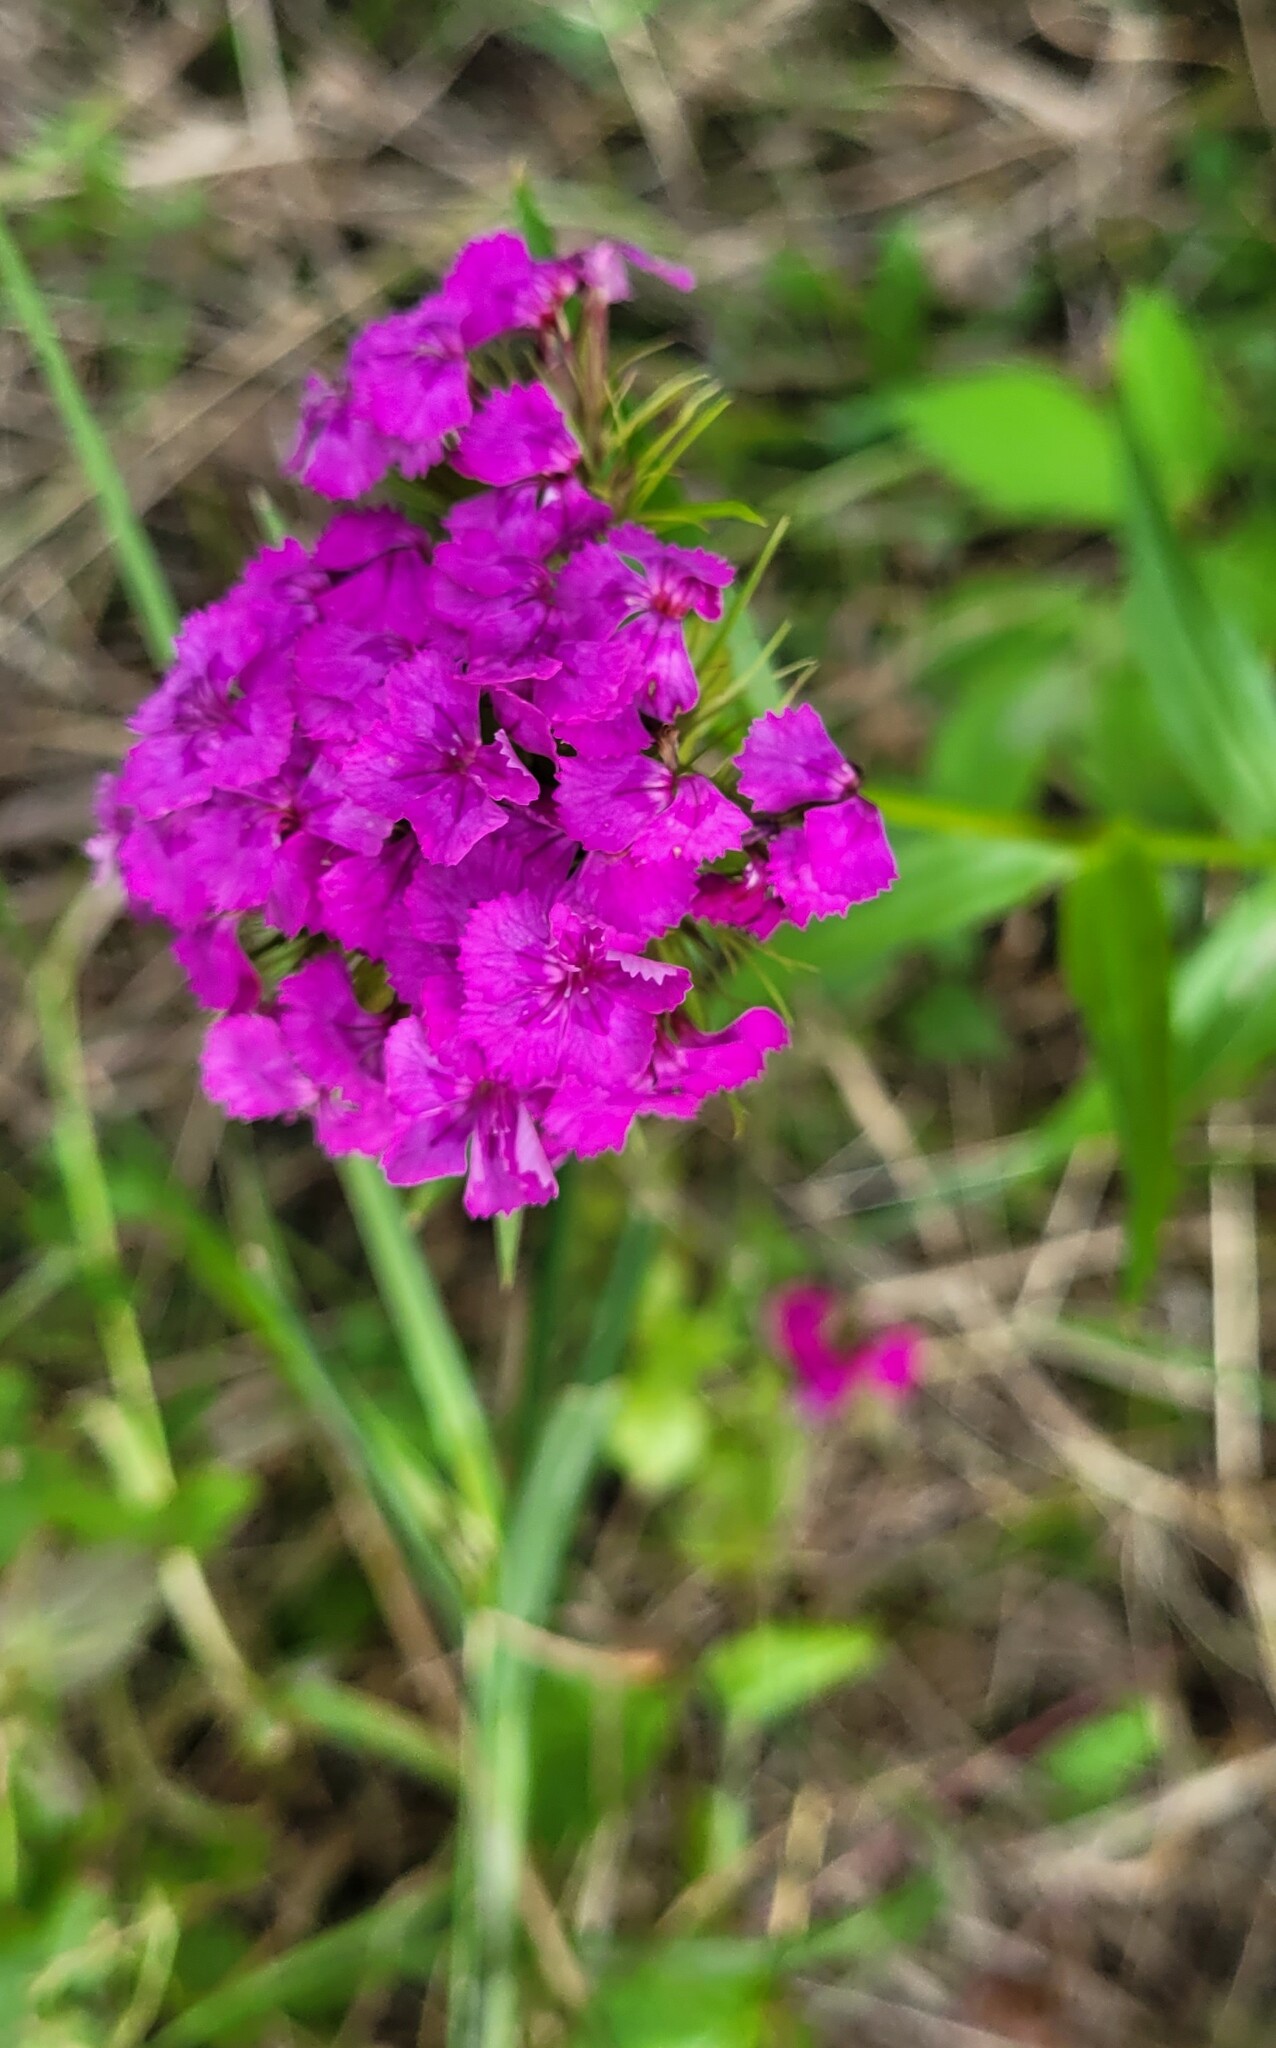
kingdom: Plantae
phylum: Tracheophyta
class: Magnoliopsida
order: Caryophyllales
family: Caryophyllaceae
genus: Dianthus
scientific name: Dianthus barbatus
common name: Sweet-william
